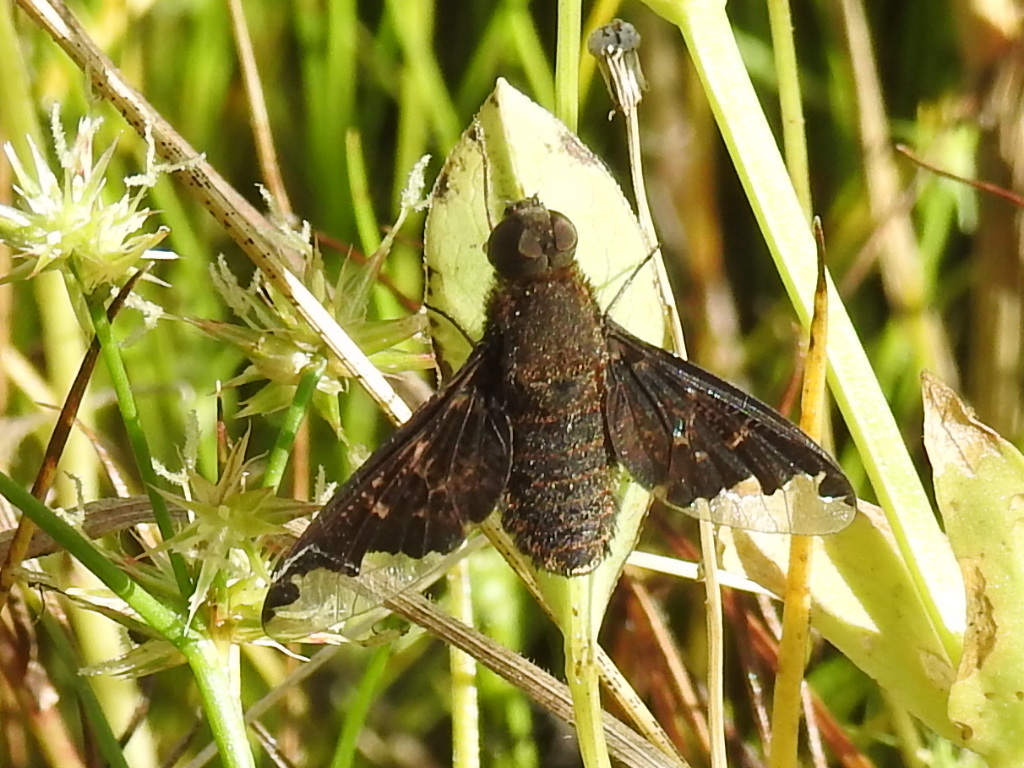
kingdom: Animalia
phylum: Arthropoda
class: Insecta
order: Diptera
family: Bombyliidae
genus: Hemipenthes
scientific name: Hemipenthes sinuosus
